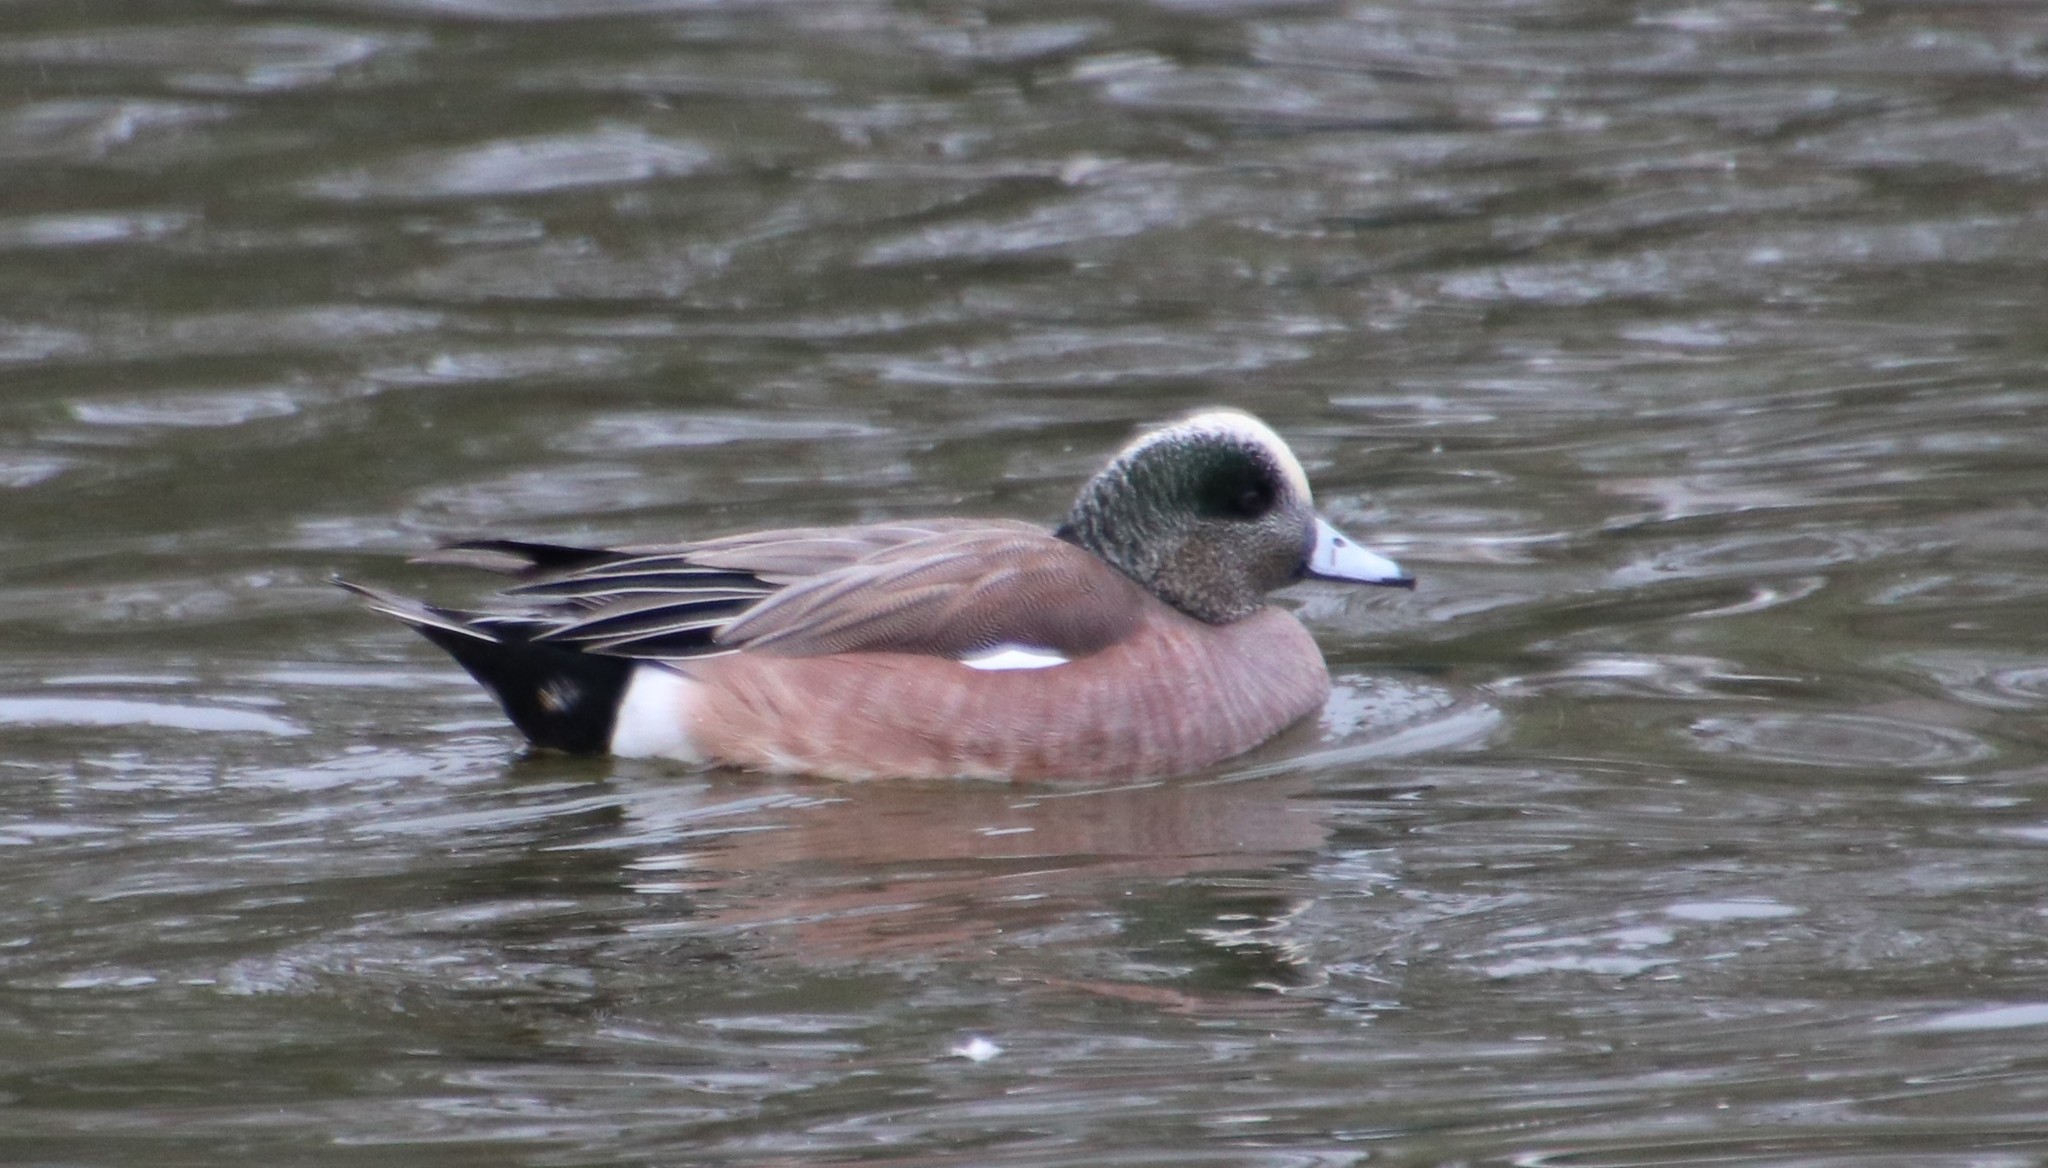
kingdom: Animalia
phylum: Chordata
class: Aves
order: Anseriformes
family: Anatidae
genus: Mareca
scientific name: Mareca americana
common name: American wigeon
